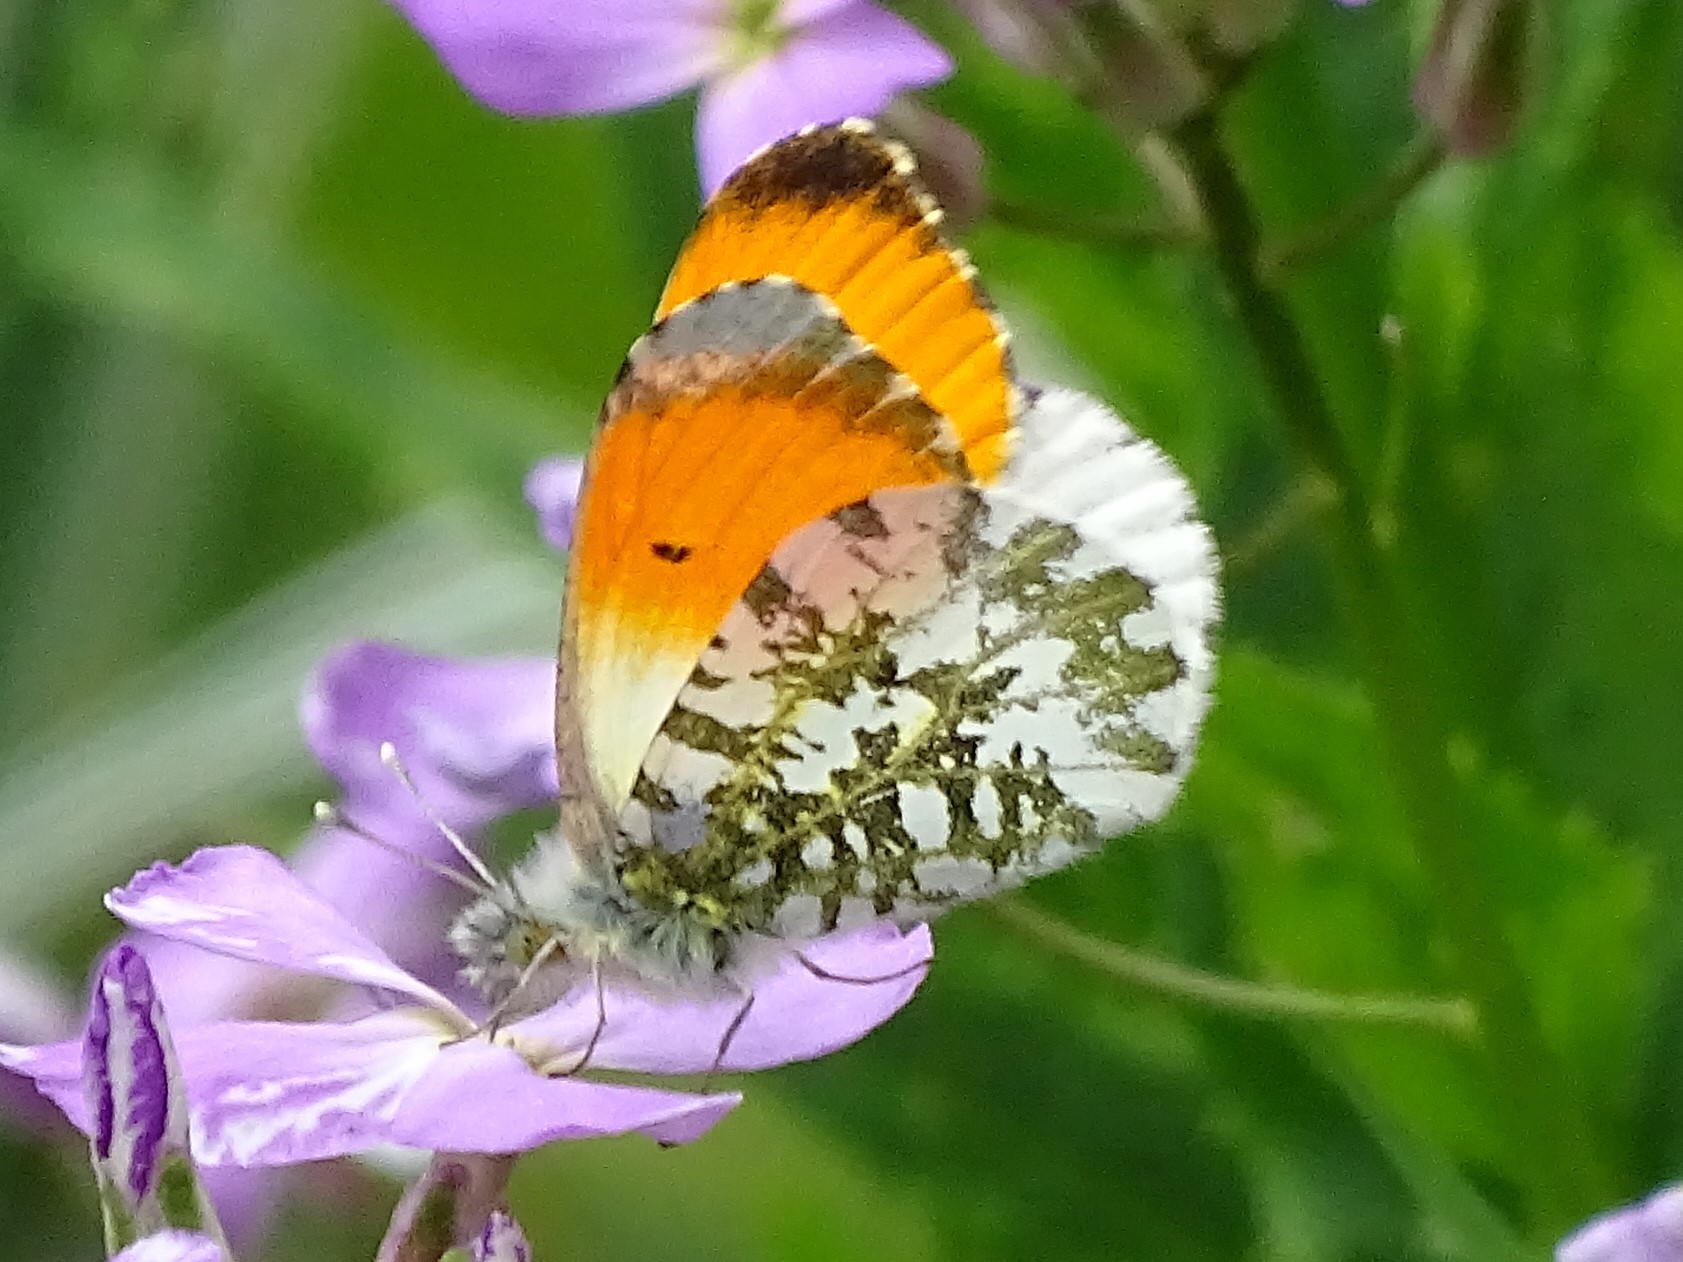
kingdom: Animalia
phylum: Arthropoda
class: Insecta
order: Lepidoptera
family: Pieridae
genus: Anthocharis
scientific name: Anthocharis cardamines
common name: Orange-tip
